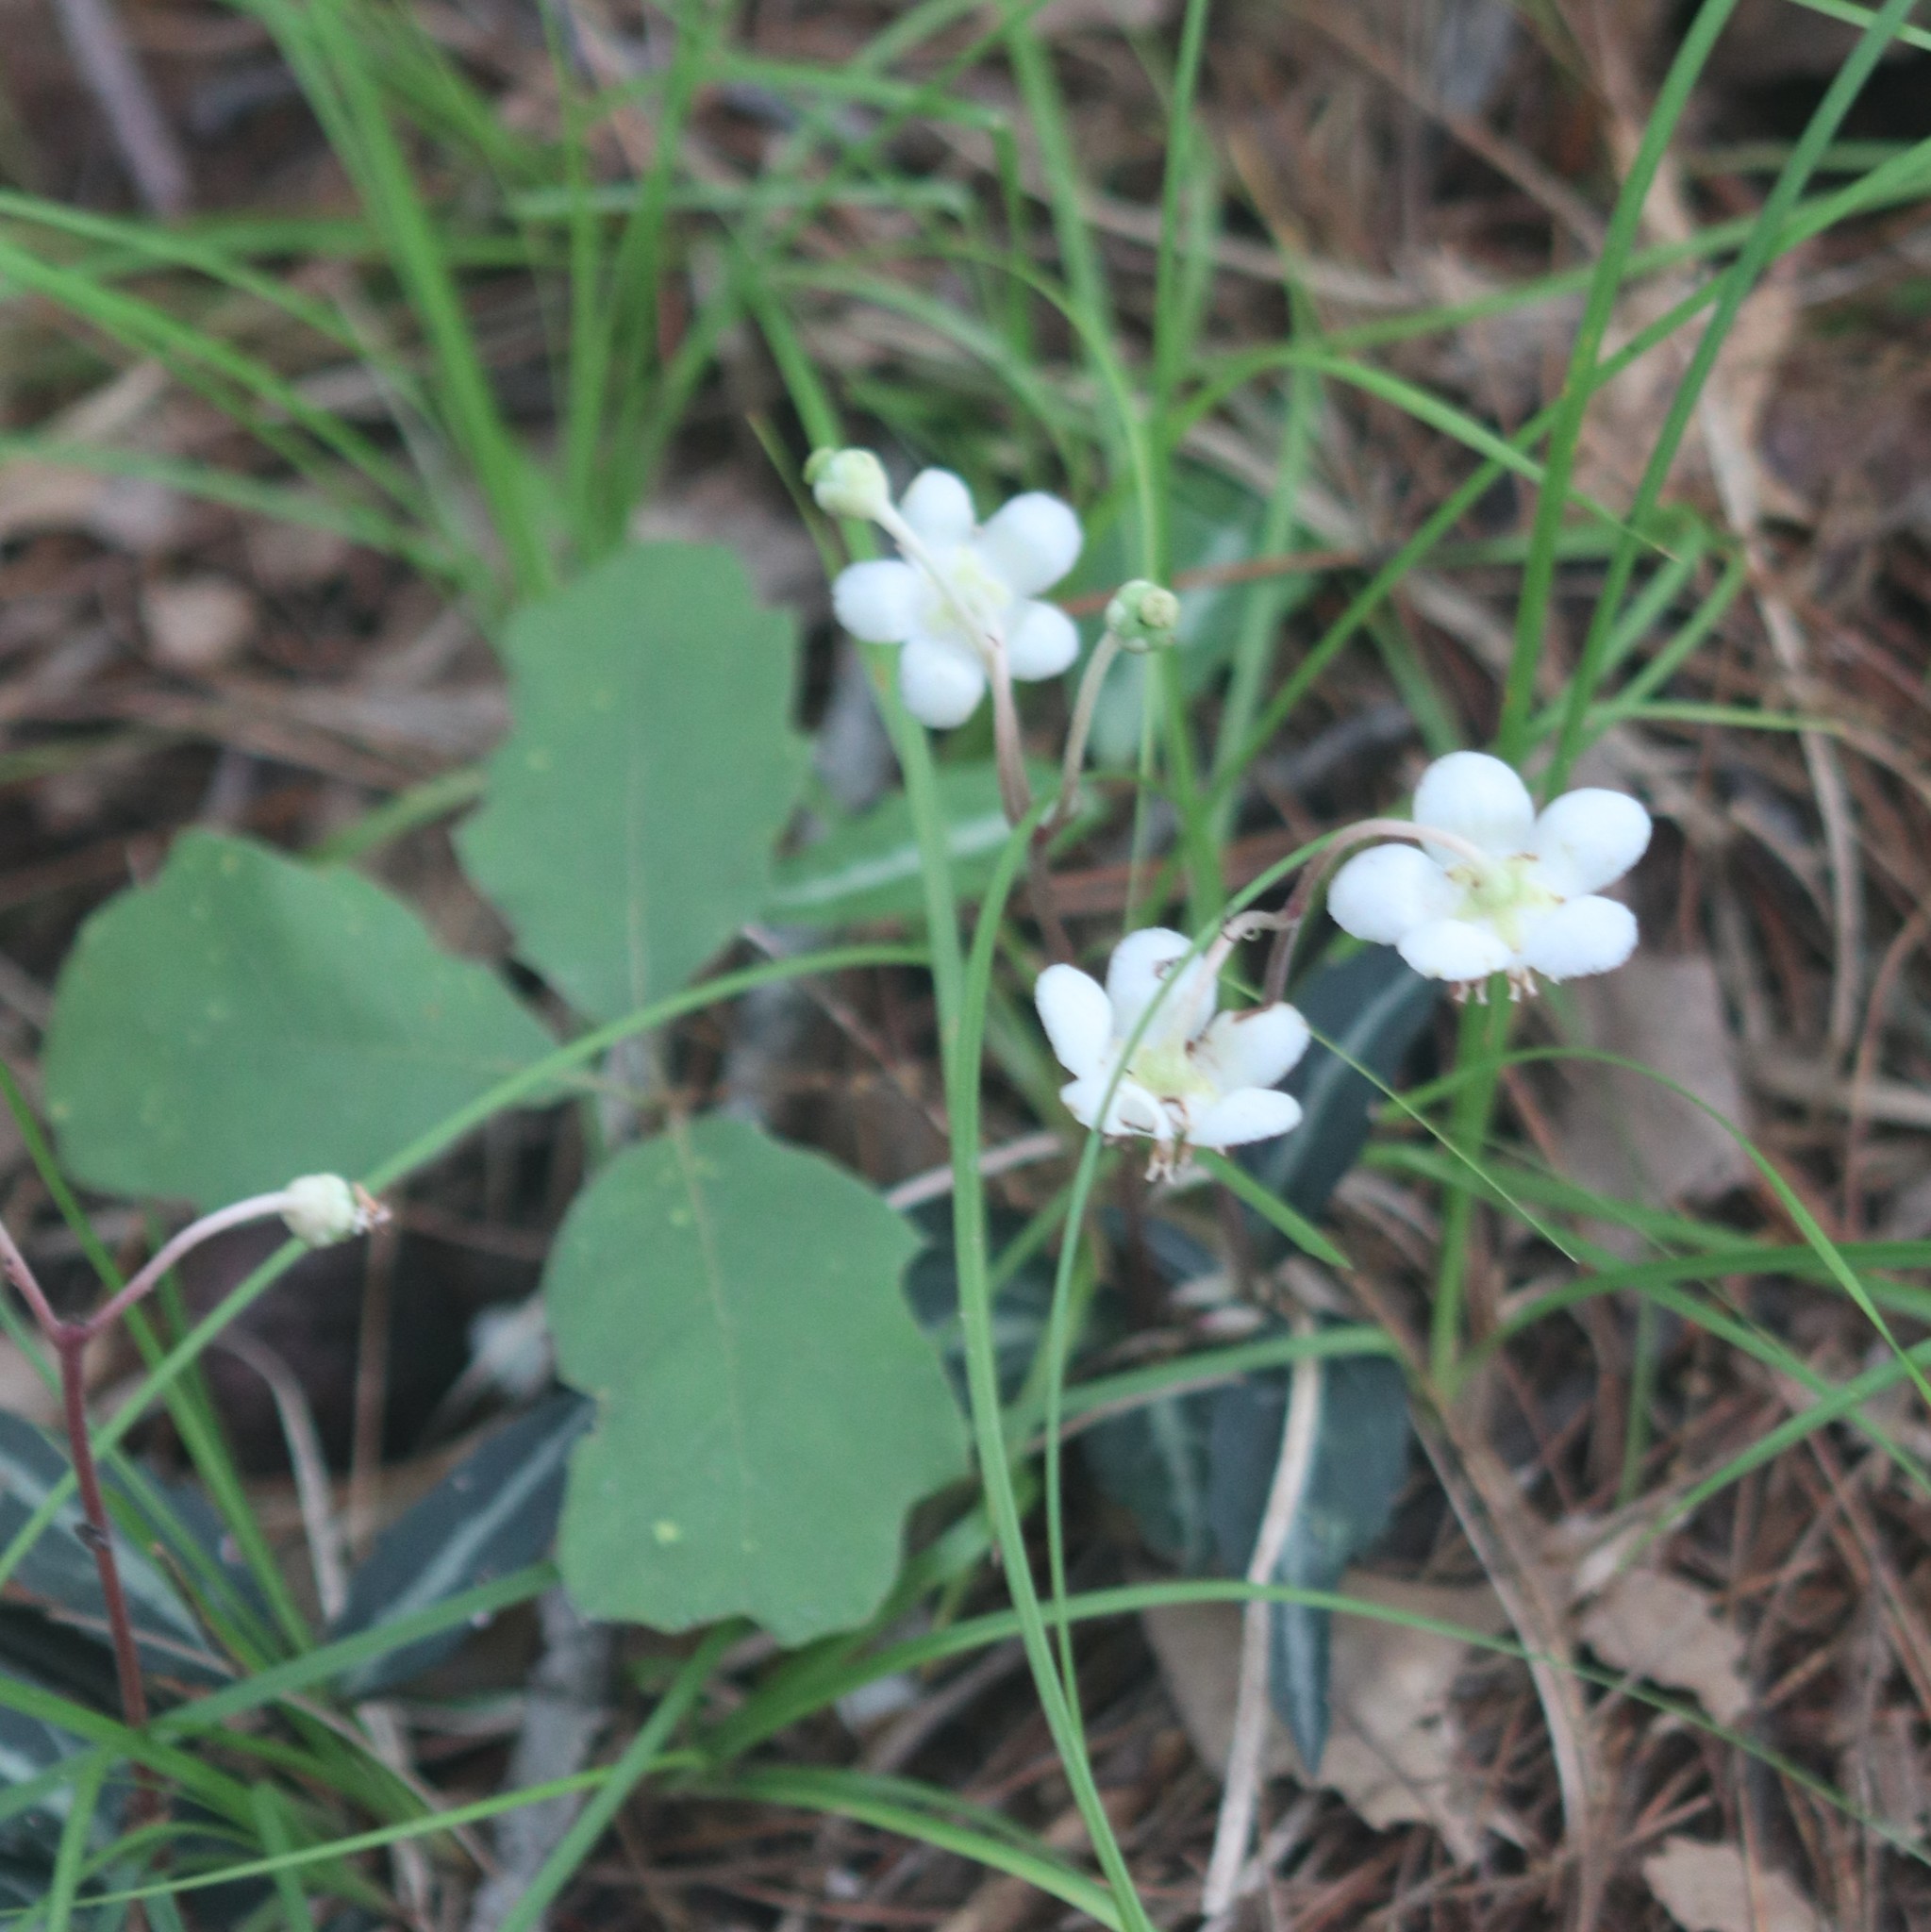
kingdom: Plantae
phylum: Tracheophyta
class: Magnoliopsida
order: Ericales
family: Ericaceae
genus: Chimaphila
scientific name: Chimaphila maculata
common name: Spotted pipsissewa
